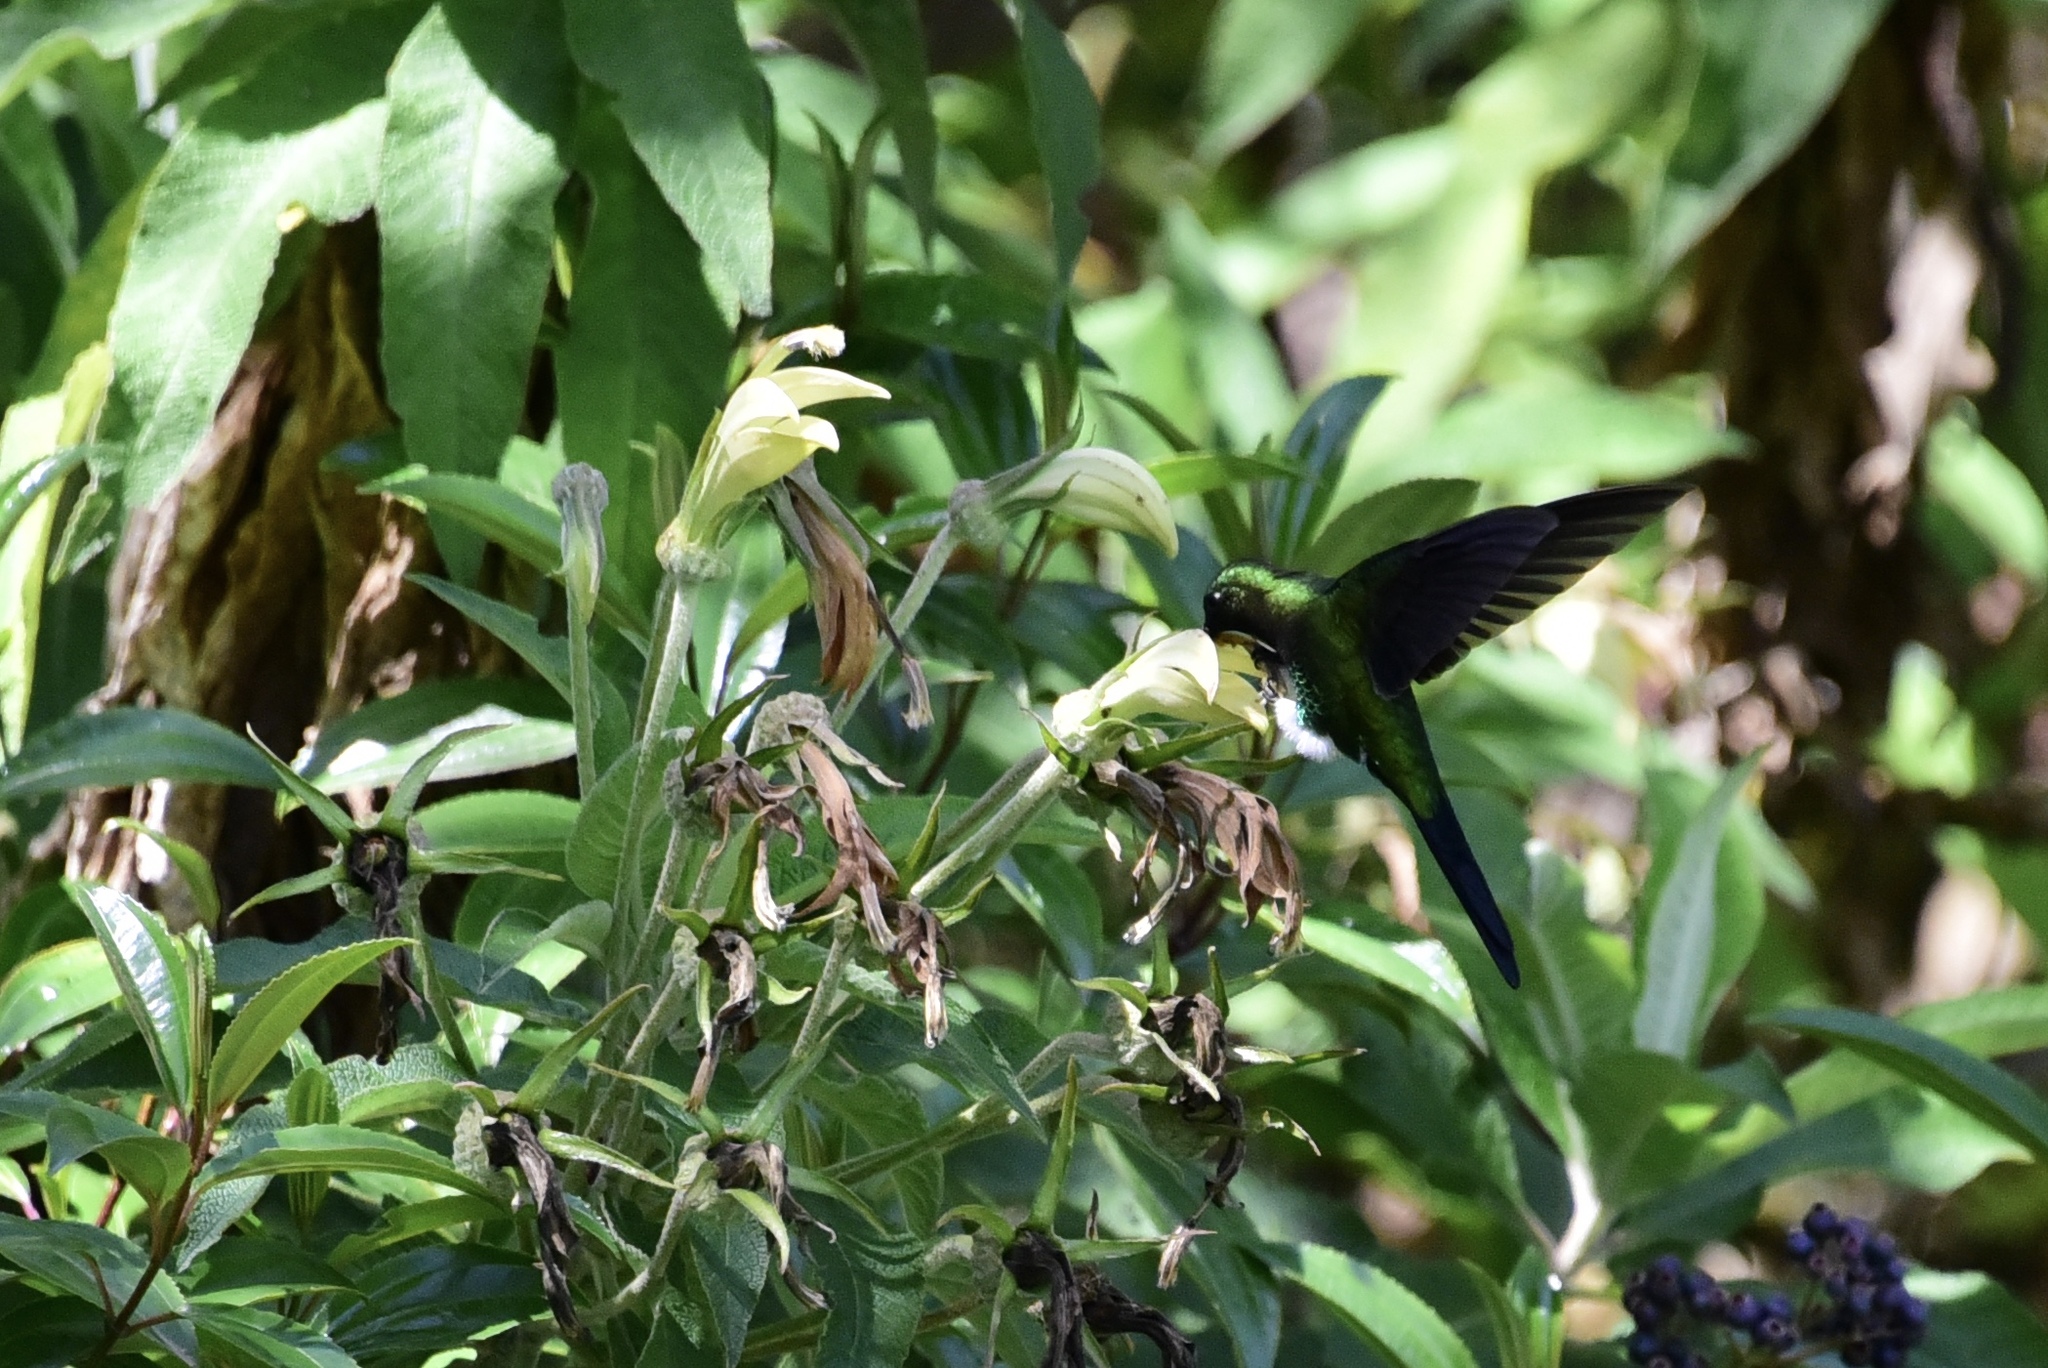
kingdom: Animalia
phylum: Chordata
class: Aves
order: Apodiformes
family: Trochilidae
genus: Eriocnemis
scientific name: Eriocnemis luciani
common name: Sapphire-vented puffleg
